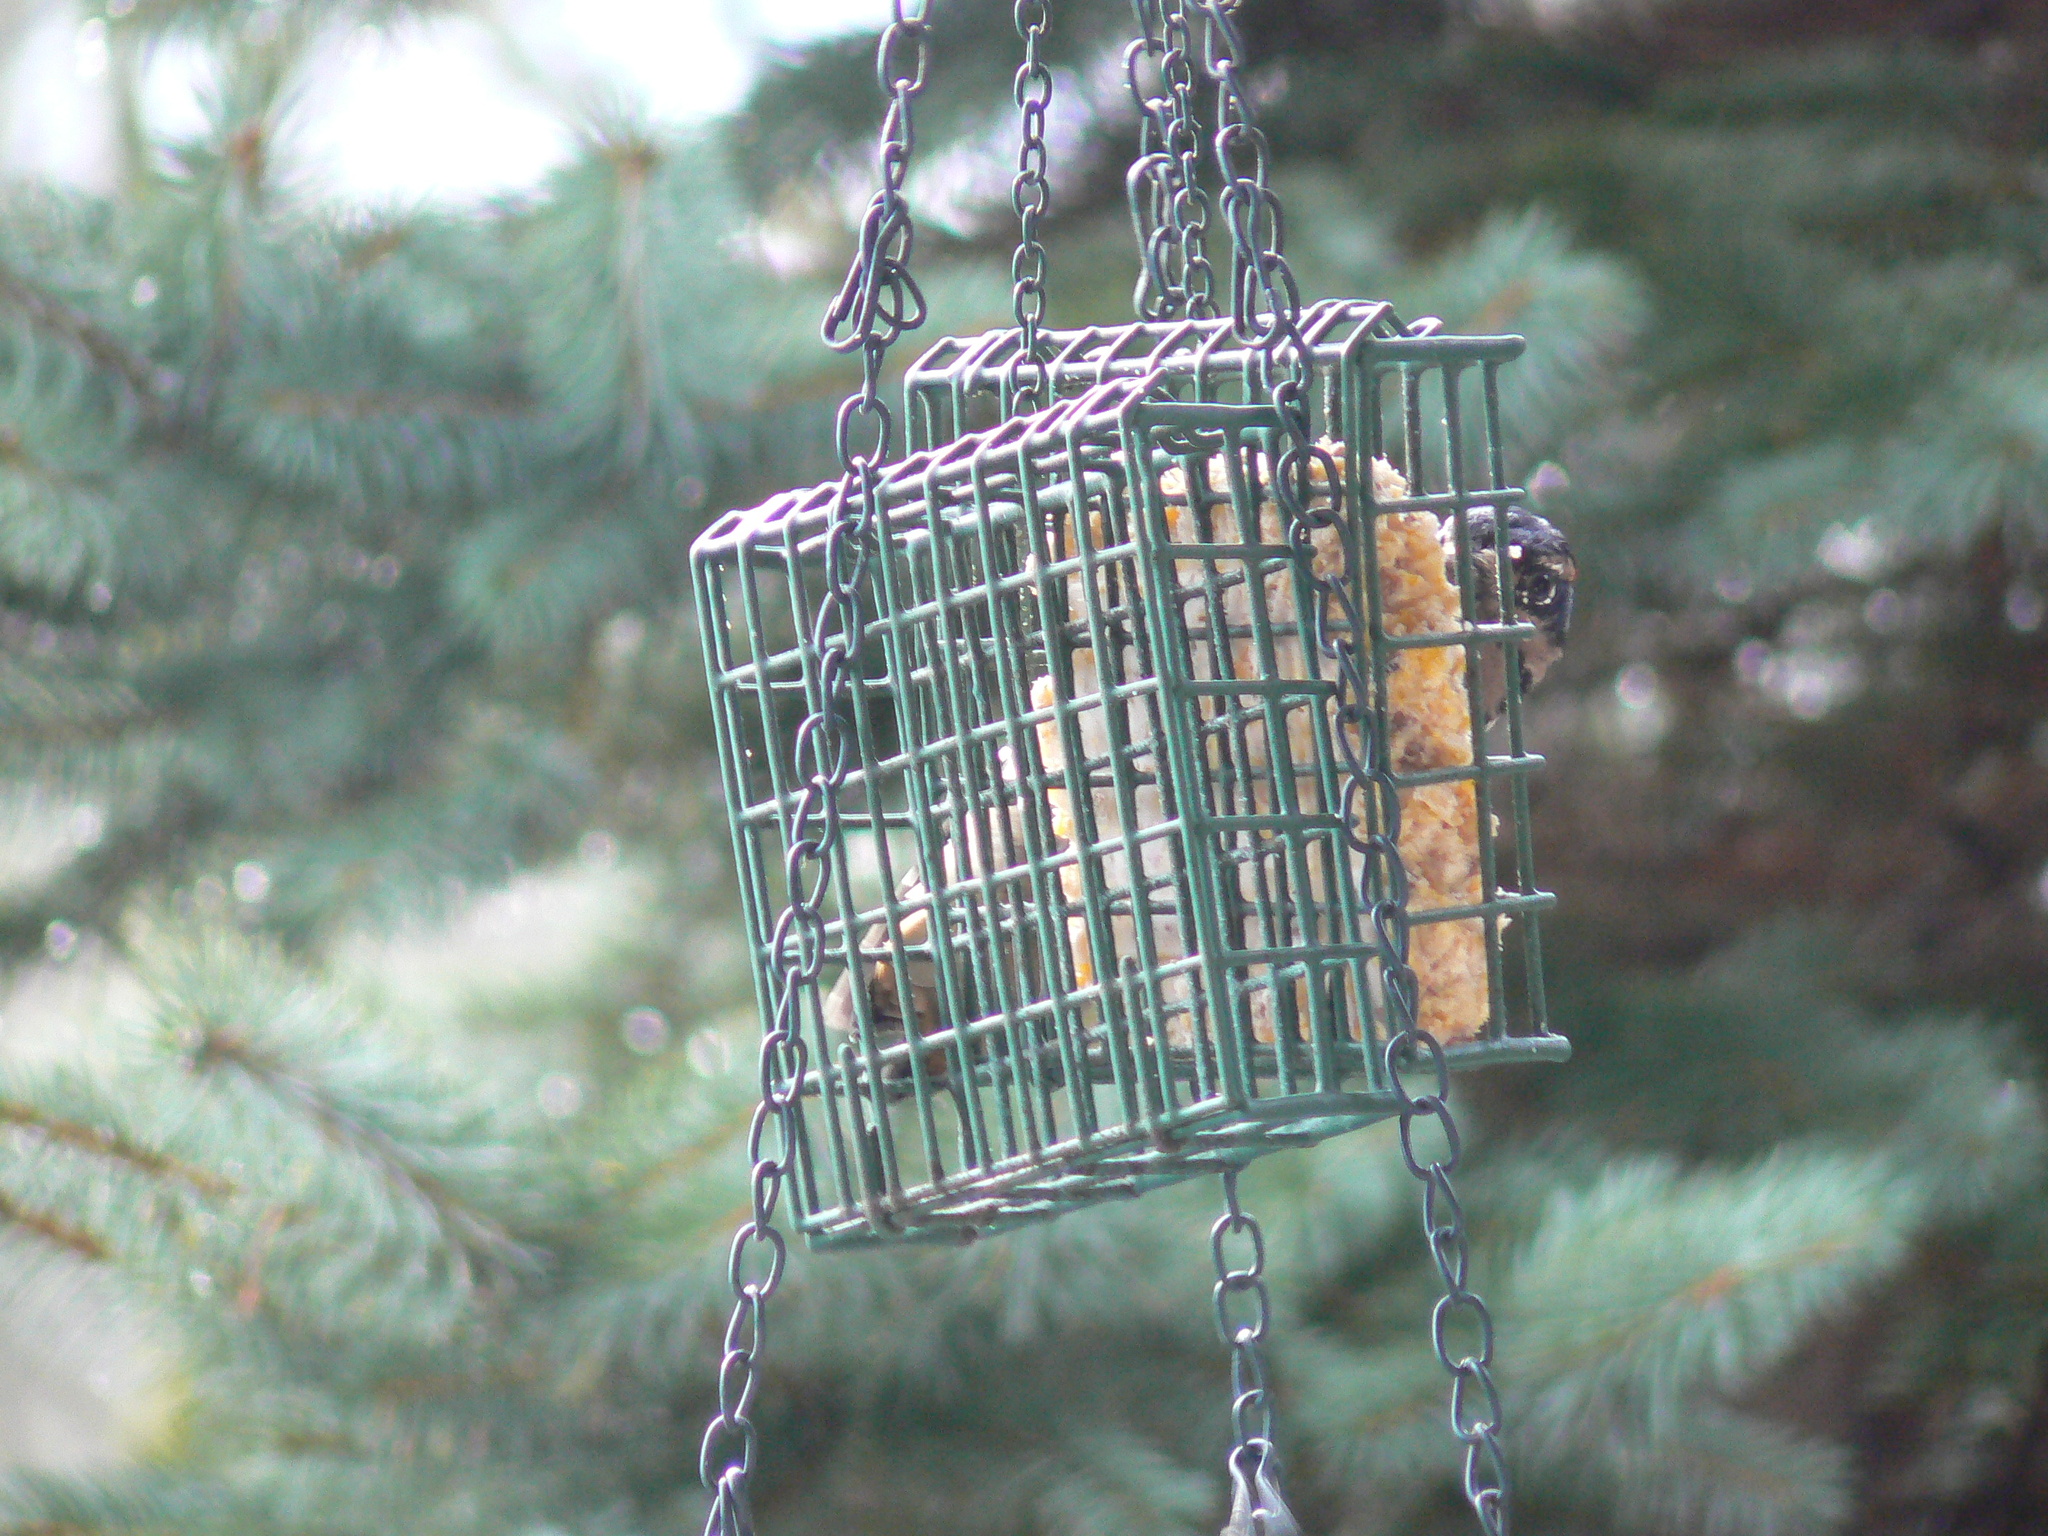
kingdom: Animalia
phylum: Chordata
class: Aves
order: Piciformes
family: Picidae
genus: Leuconotopicus
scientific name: Leuconotopicus villosus
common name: Hairy woodpecker
